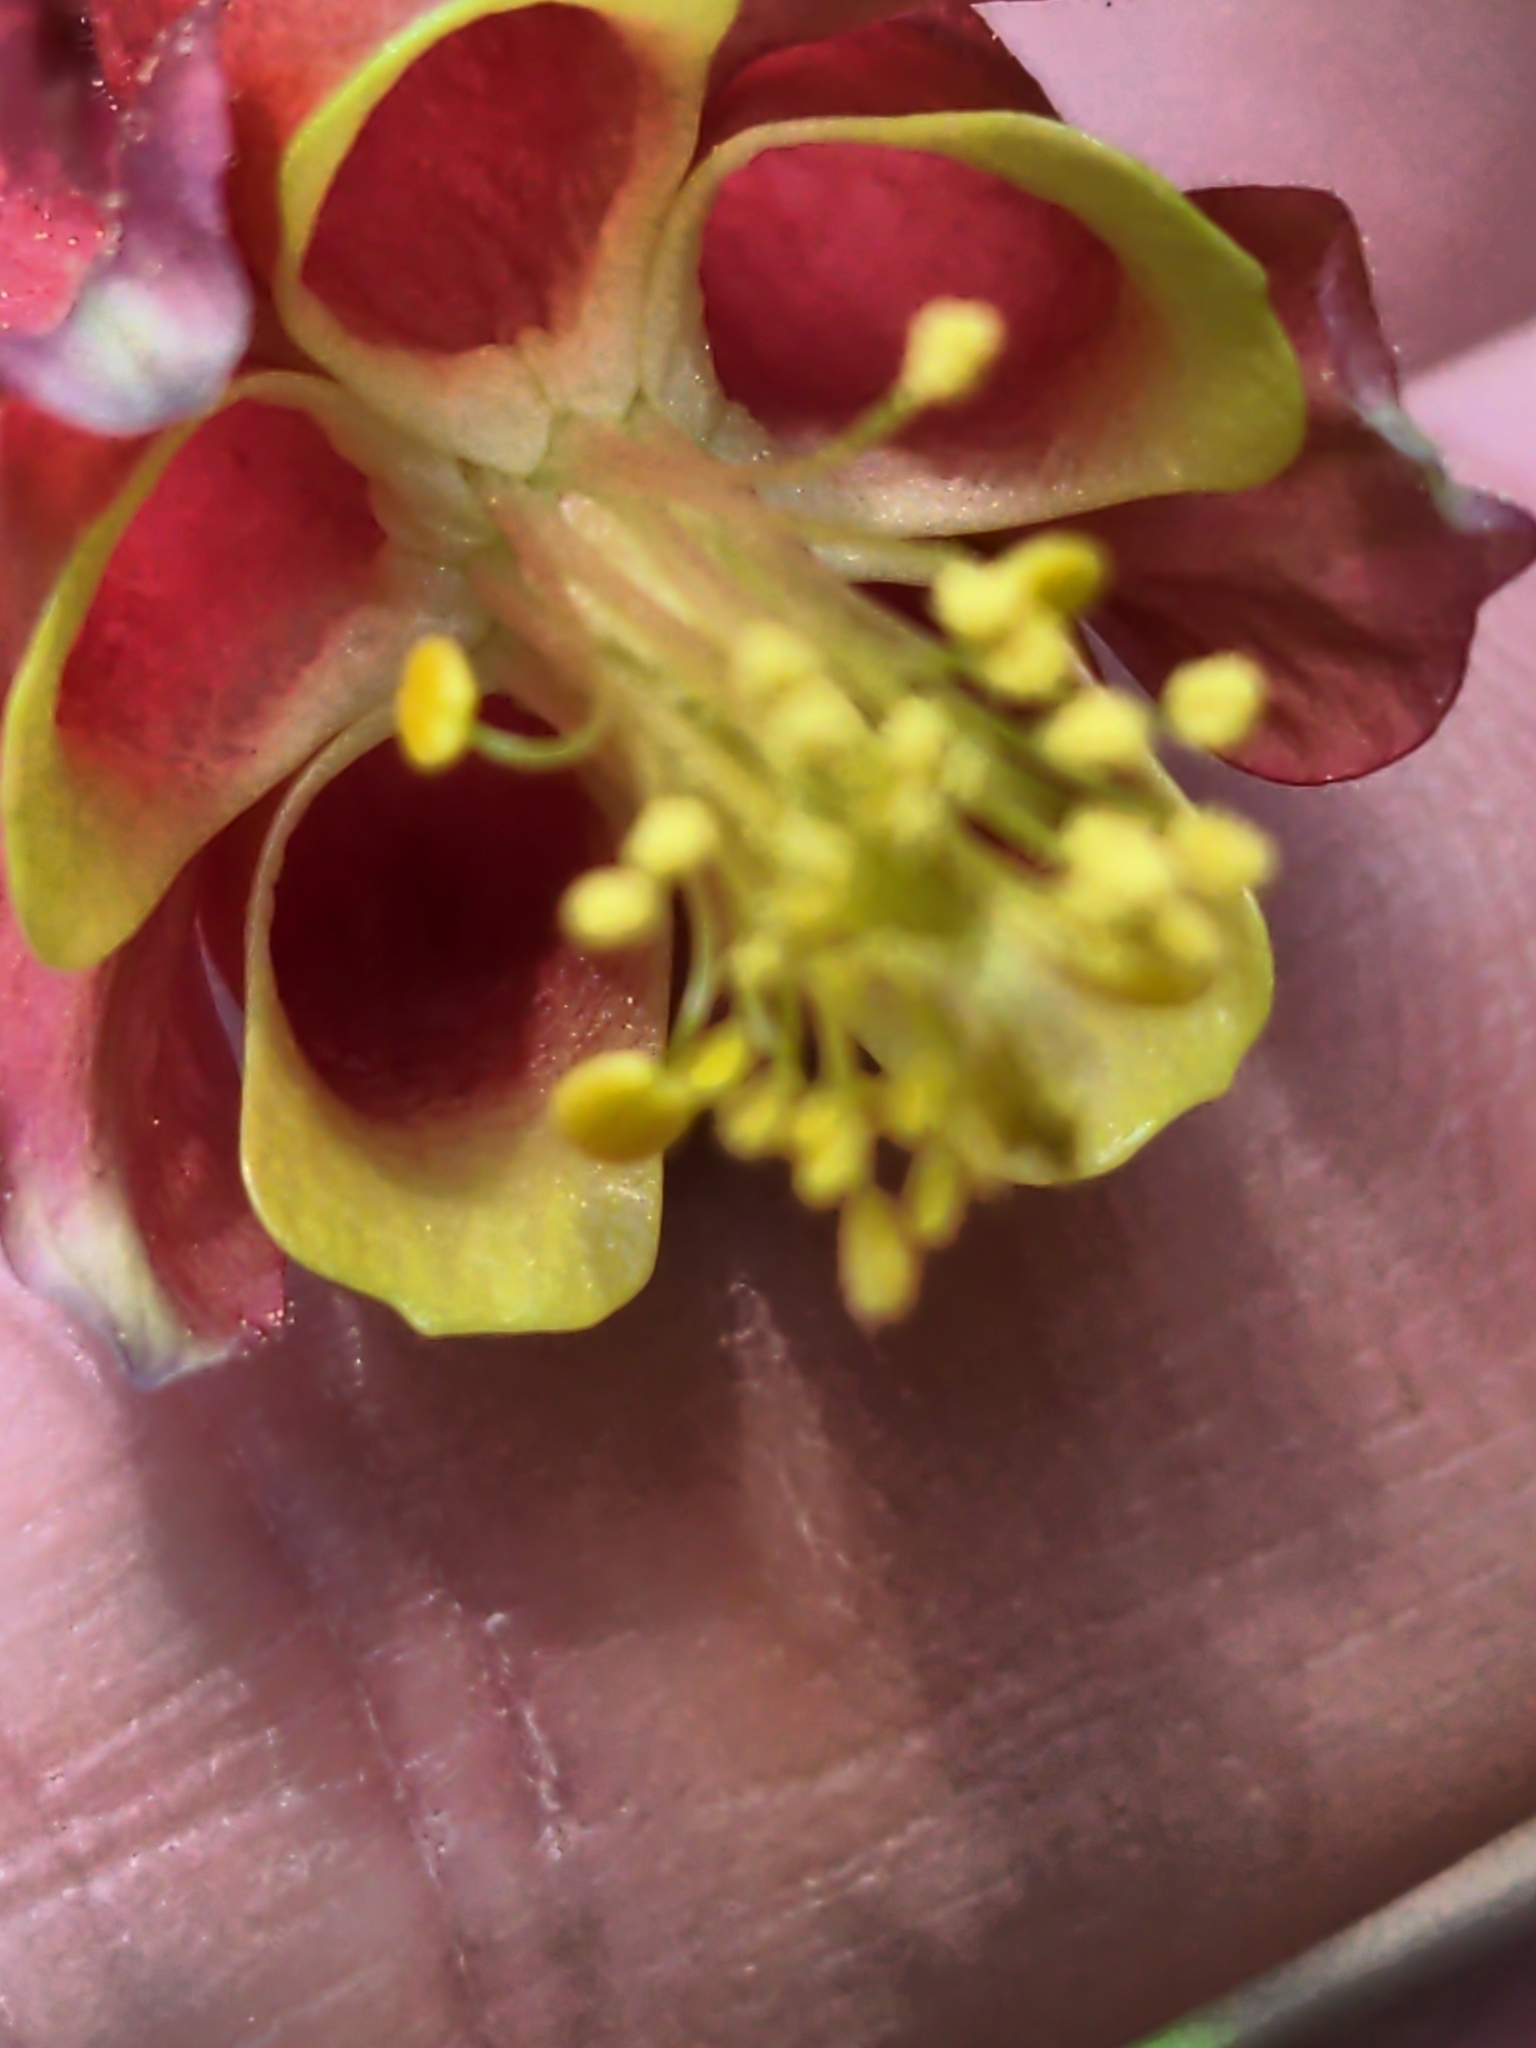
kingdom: Plantae
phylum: Tracheophyta
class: Magnoliopsida
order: Ranunculales
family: Ranunculaceae
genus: Aquilegia
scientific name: Aquilegia canadensis
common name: American columbine
